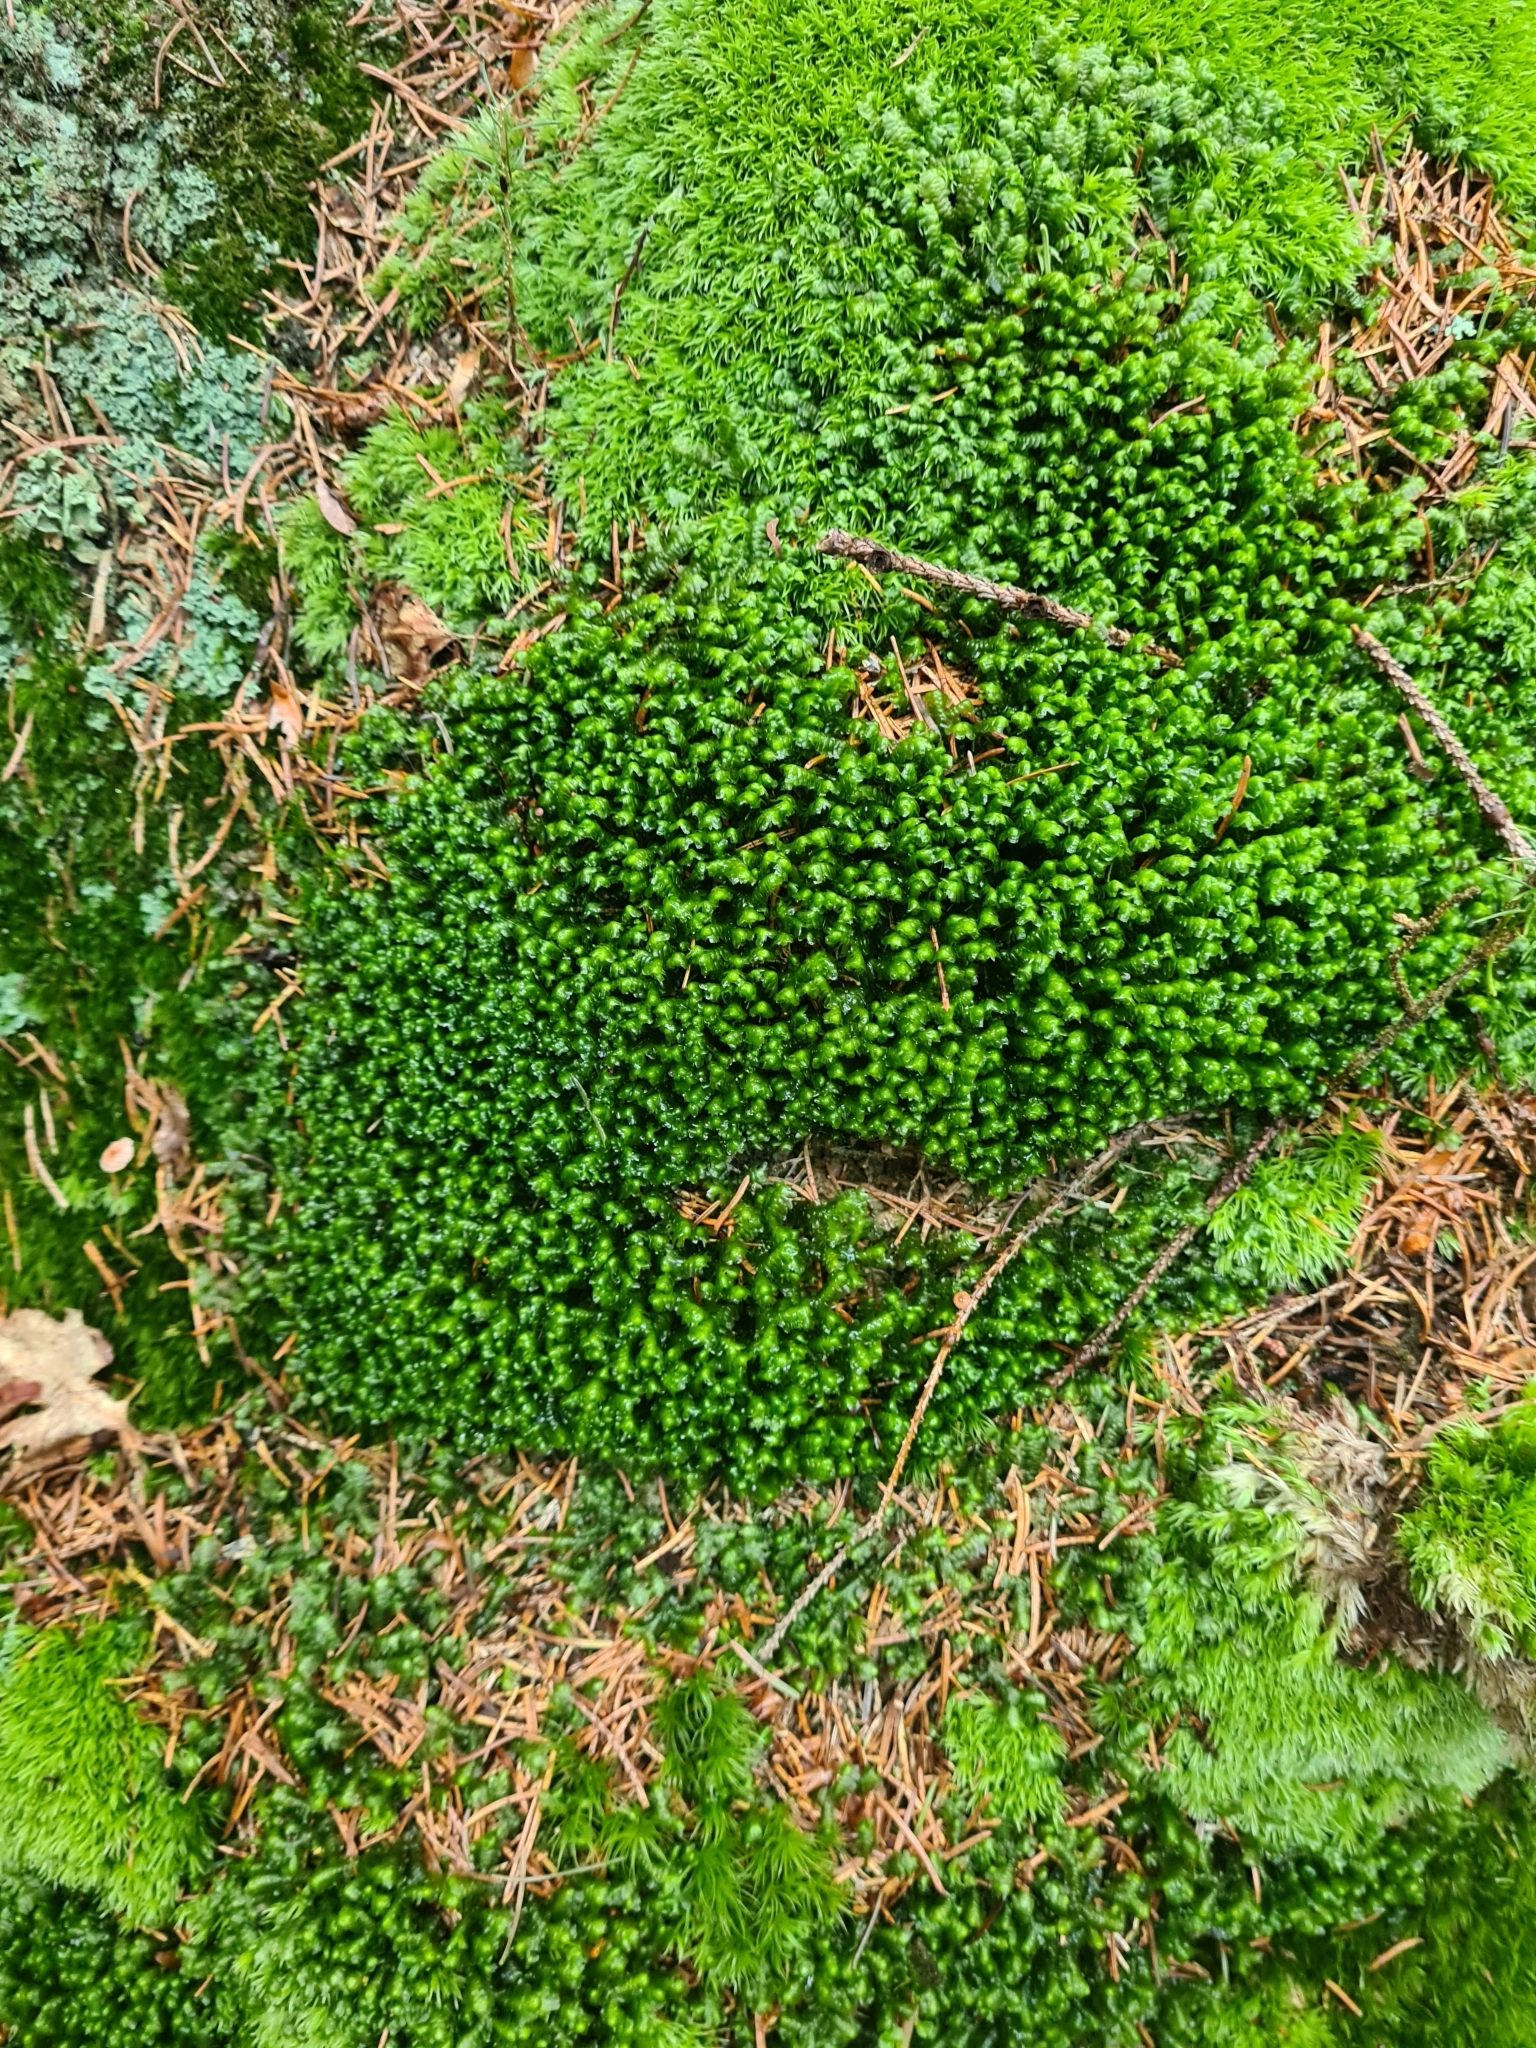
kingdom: Plantae
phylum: Marchantiophyta
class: Jungermanniopsida
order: Jungermanniales
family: Lepidoziaceae
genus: Bazzania
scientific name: Bazzania trilobata
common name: Three-lobed whipwort
